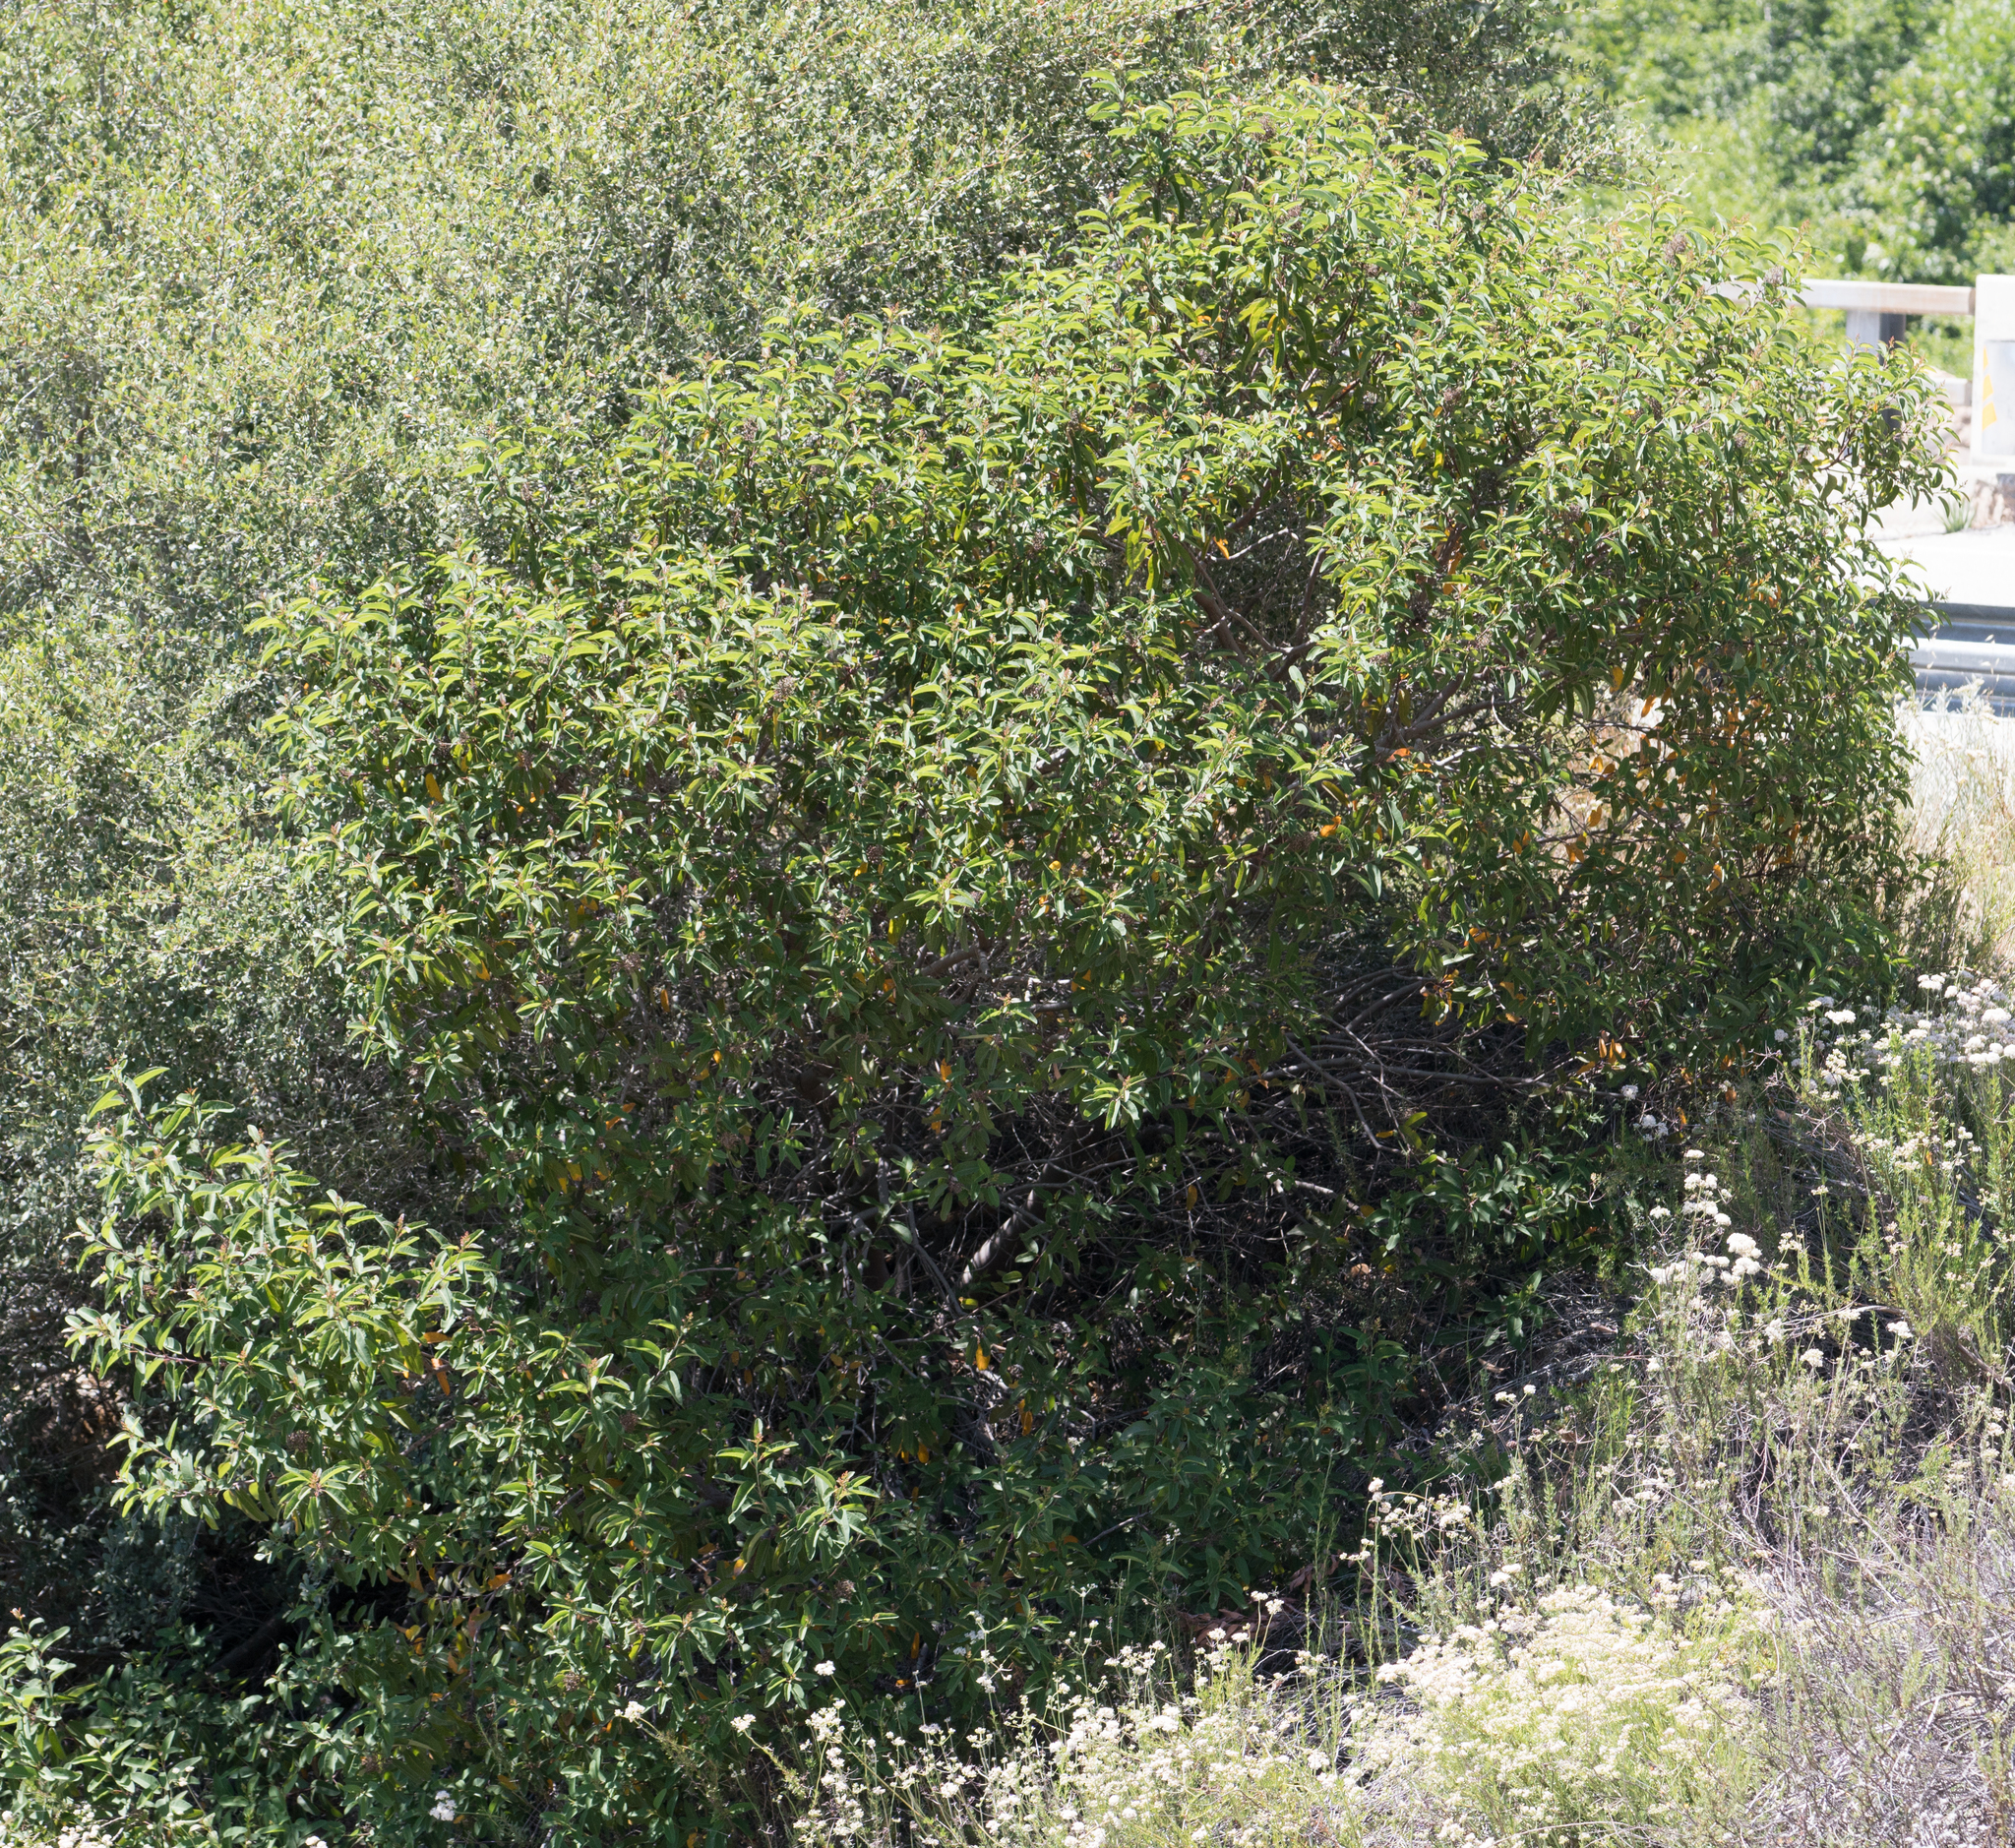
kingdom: Plantae
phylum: Tracheophyta
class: Magnoliopsida
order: Sapindales
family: Anacardiaceae
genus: Malosma
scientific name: Malosma laurina
